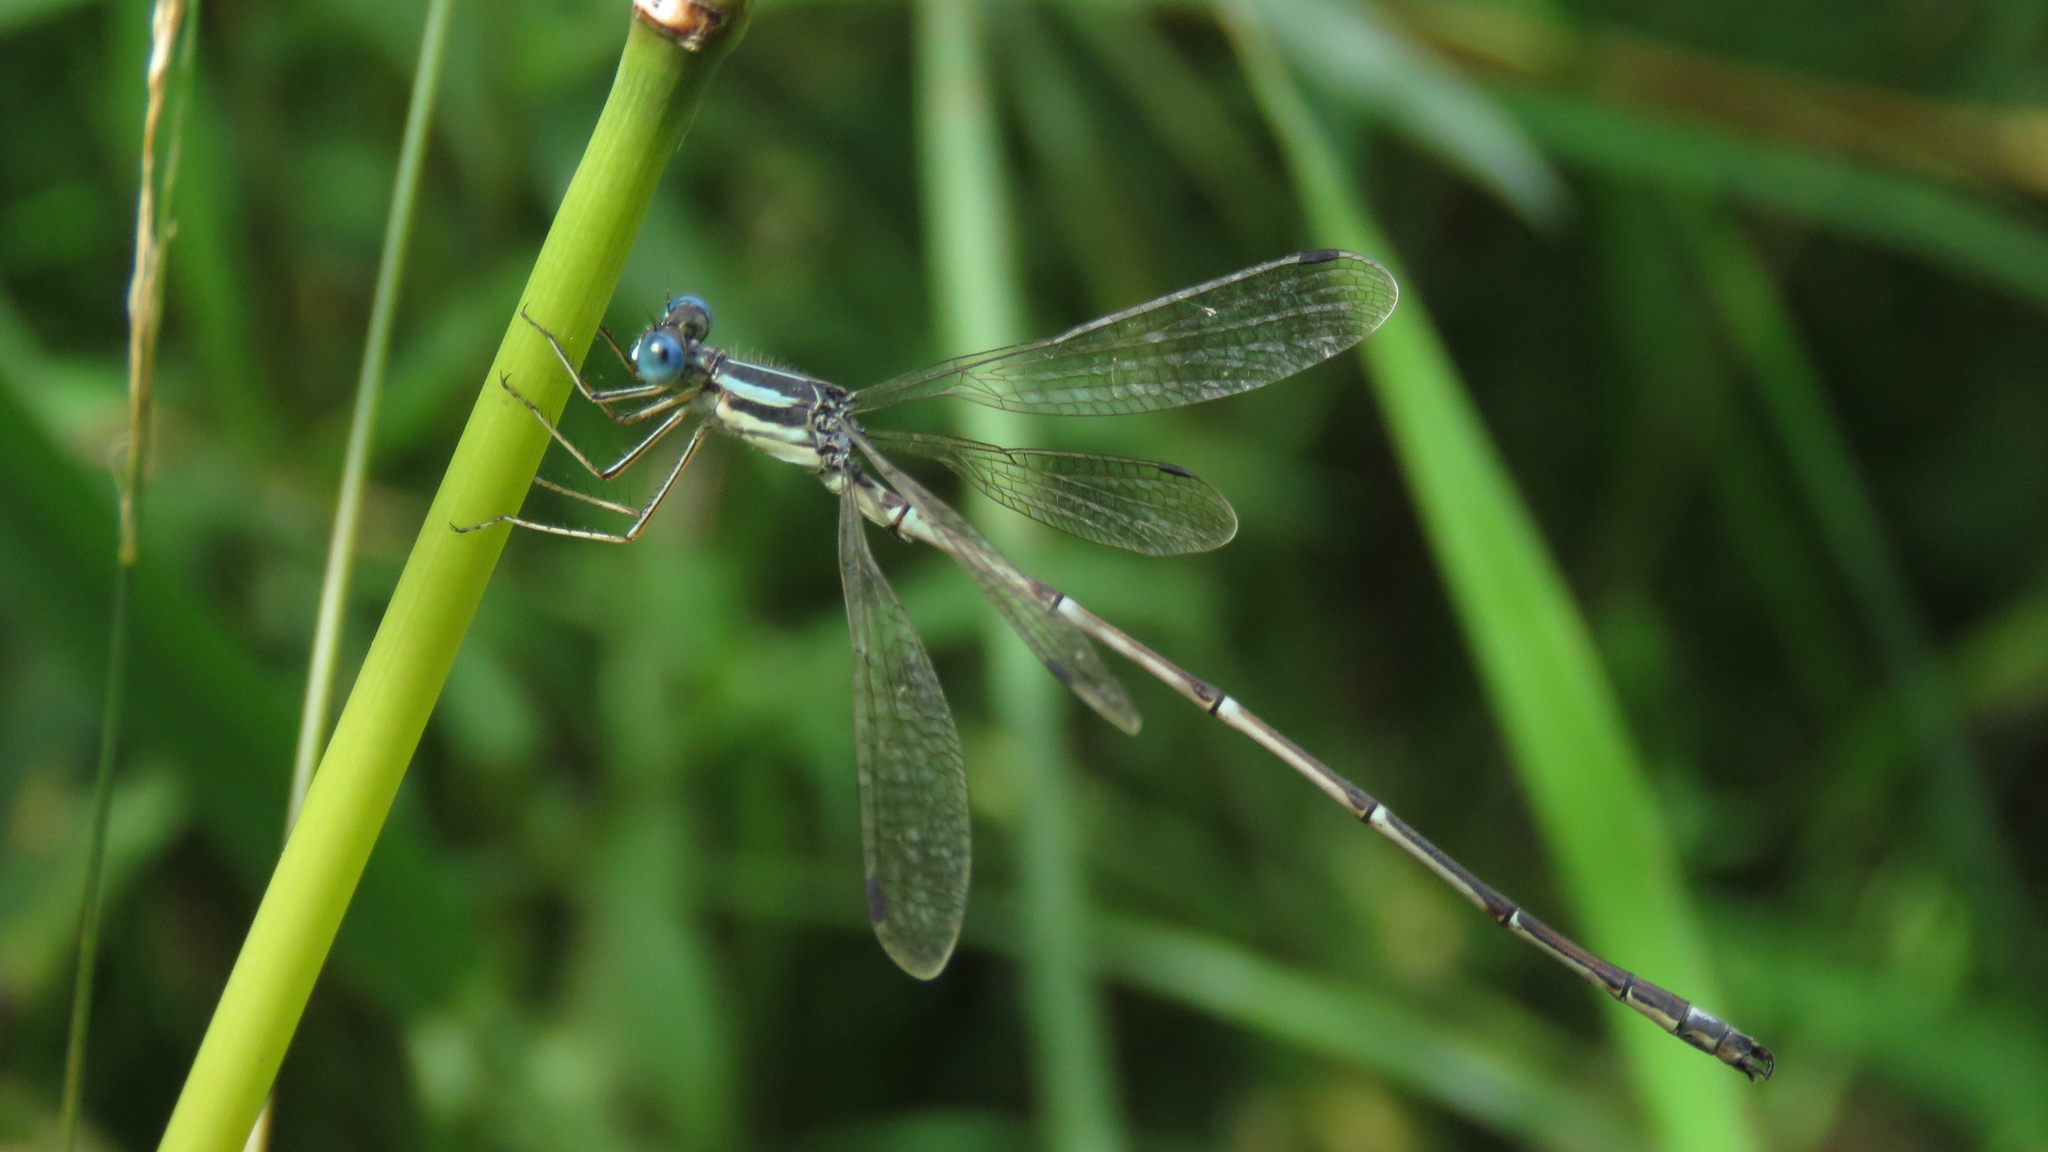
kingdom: Animalia
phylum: Arthropoda
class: Insecta
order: Odonata
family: Lestidae
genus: Lestes
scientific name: Lestes rectangularis
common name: Slender spreadwing
